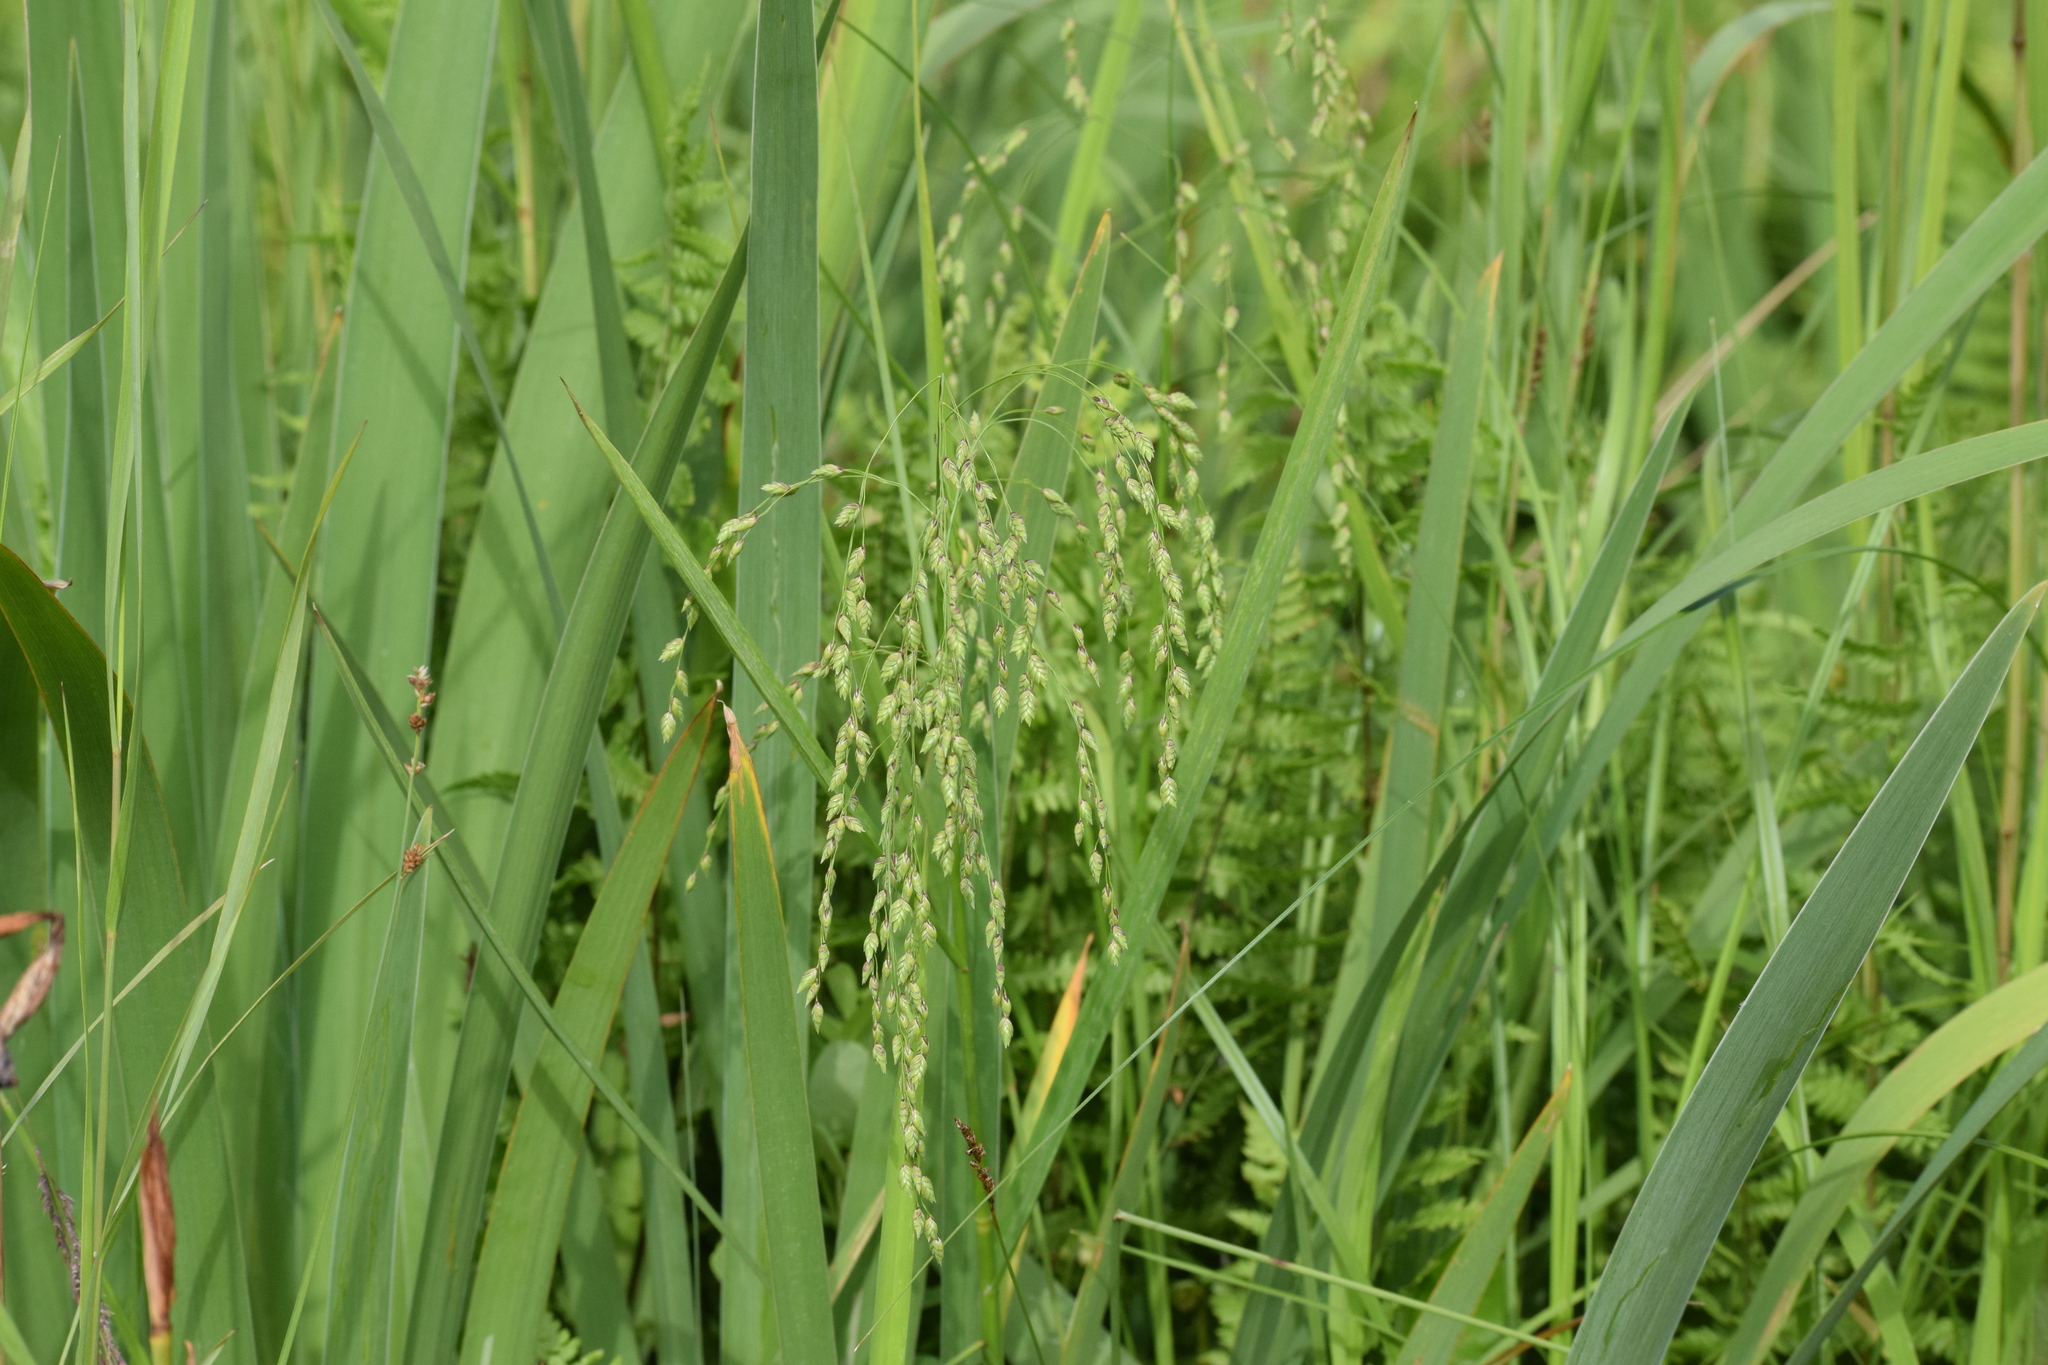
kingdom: Plantae
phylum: Tracheophyta
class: Liliopsida
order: Poales
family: Poaceae
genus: Glyceria
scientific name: Glyceria canadensis
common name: Canada mannagrass
